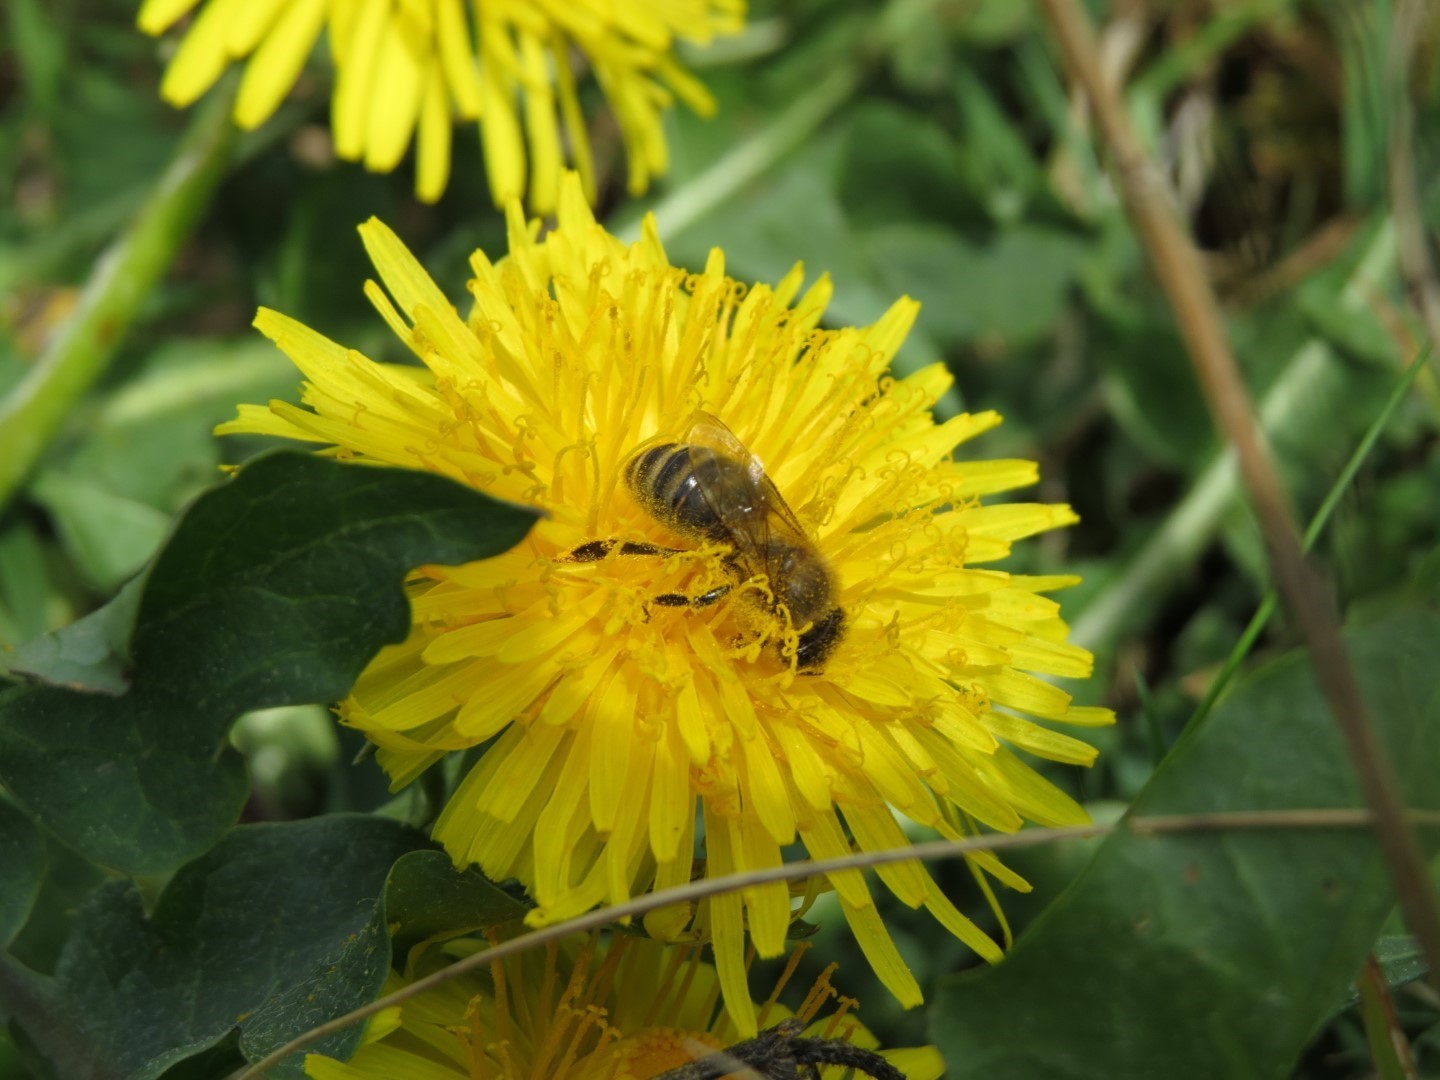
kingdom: Animalia
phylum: Arthropoda
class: Insecta
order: Hymenoptera
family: Apidae
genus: Apis
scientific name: Apis mellifera
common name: Honey bee
